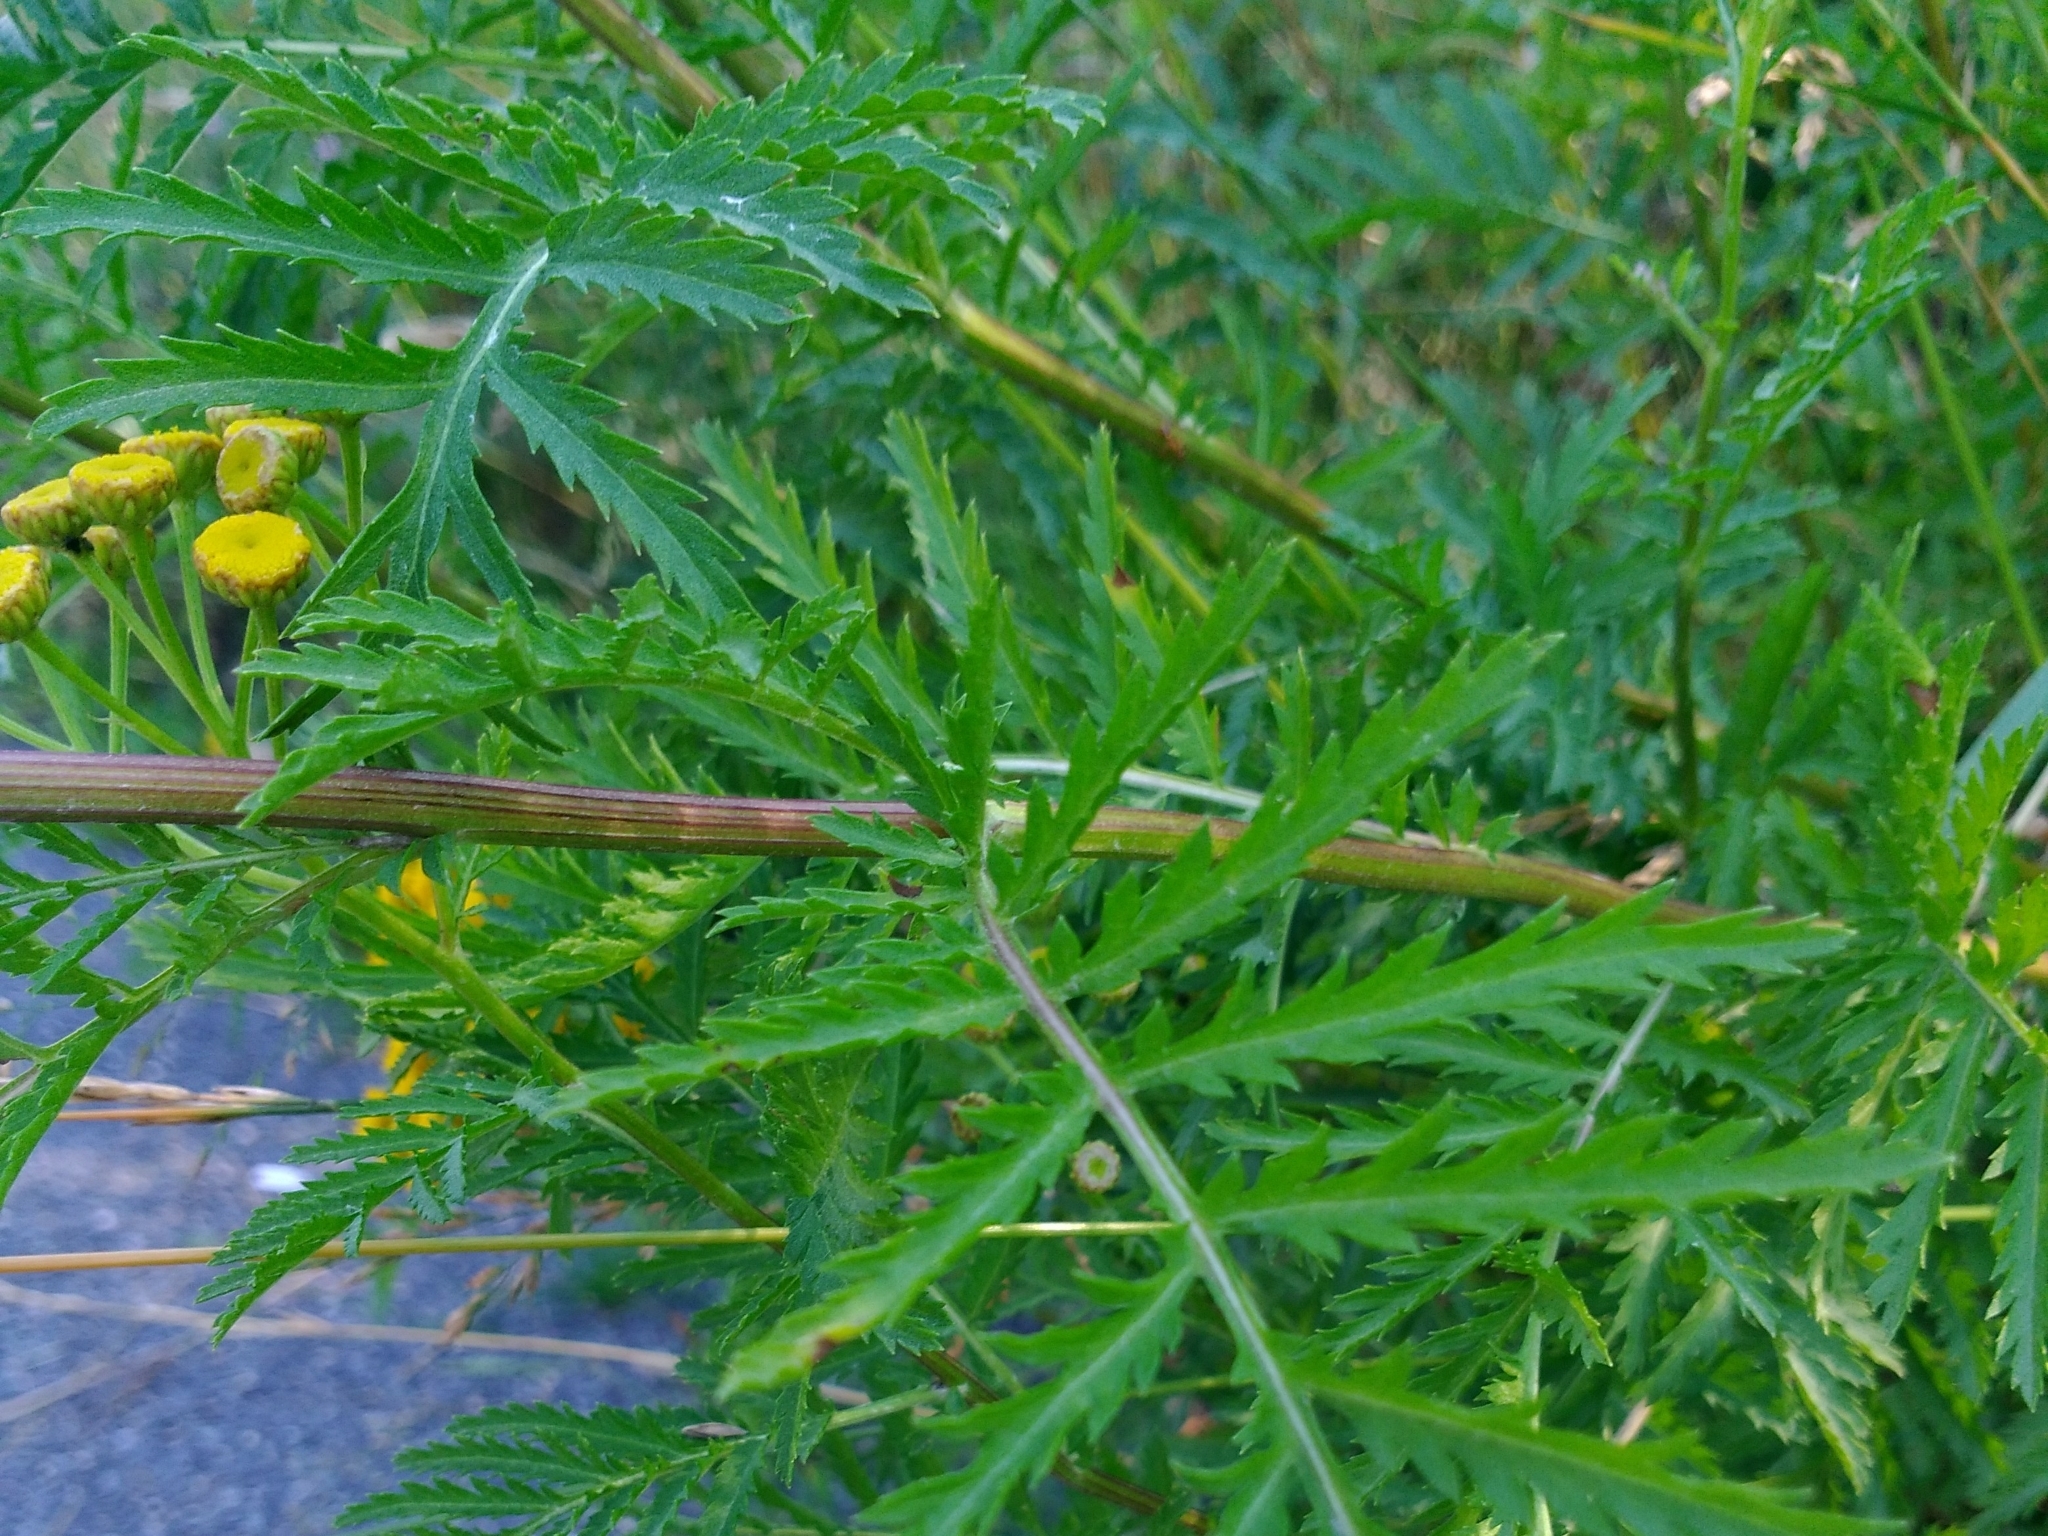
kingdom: Plantae
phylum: Tracheophyta
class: Magnoliopsida
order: Asterales
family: Asteraceae
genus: Tanacetum
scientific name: Tanacetum vulgare
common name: Common tansy
